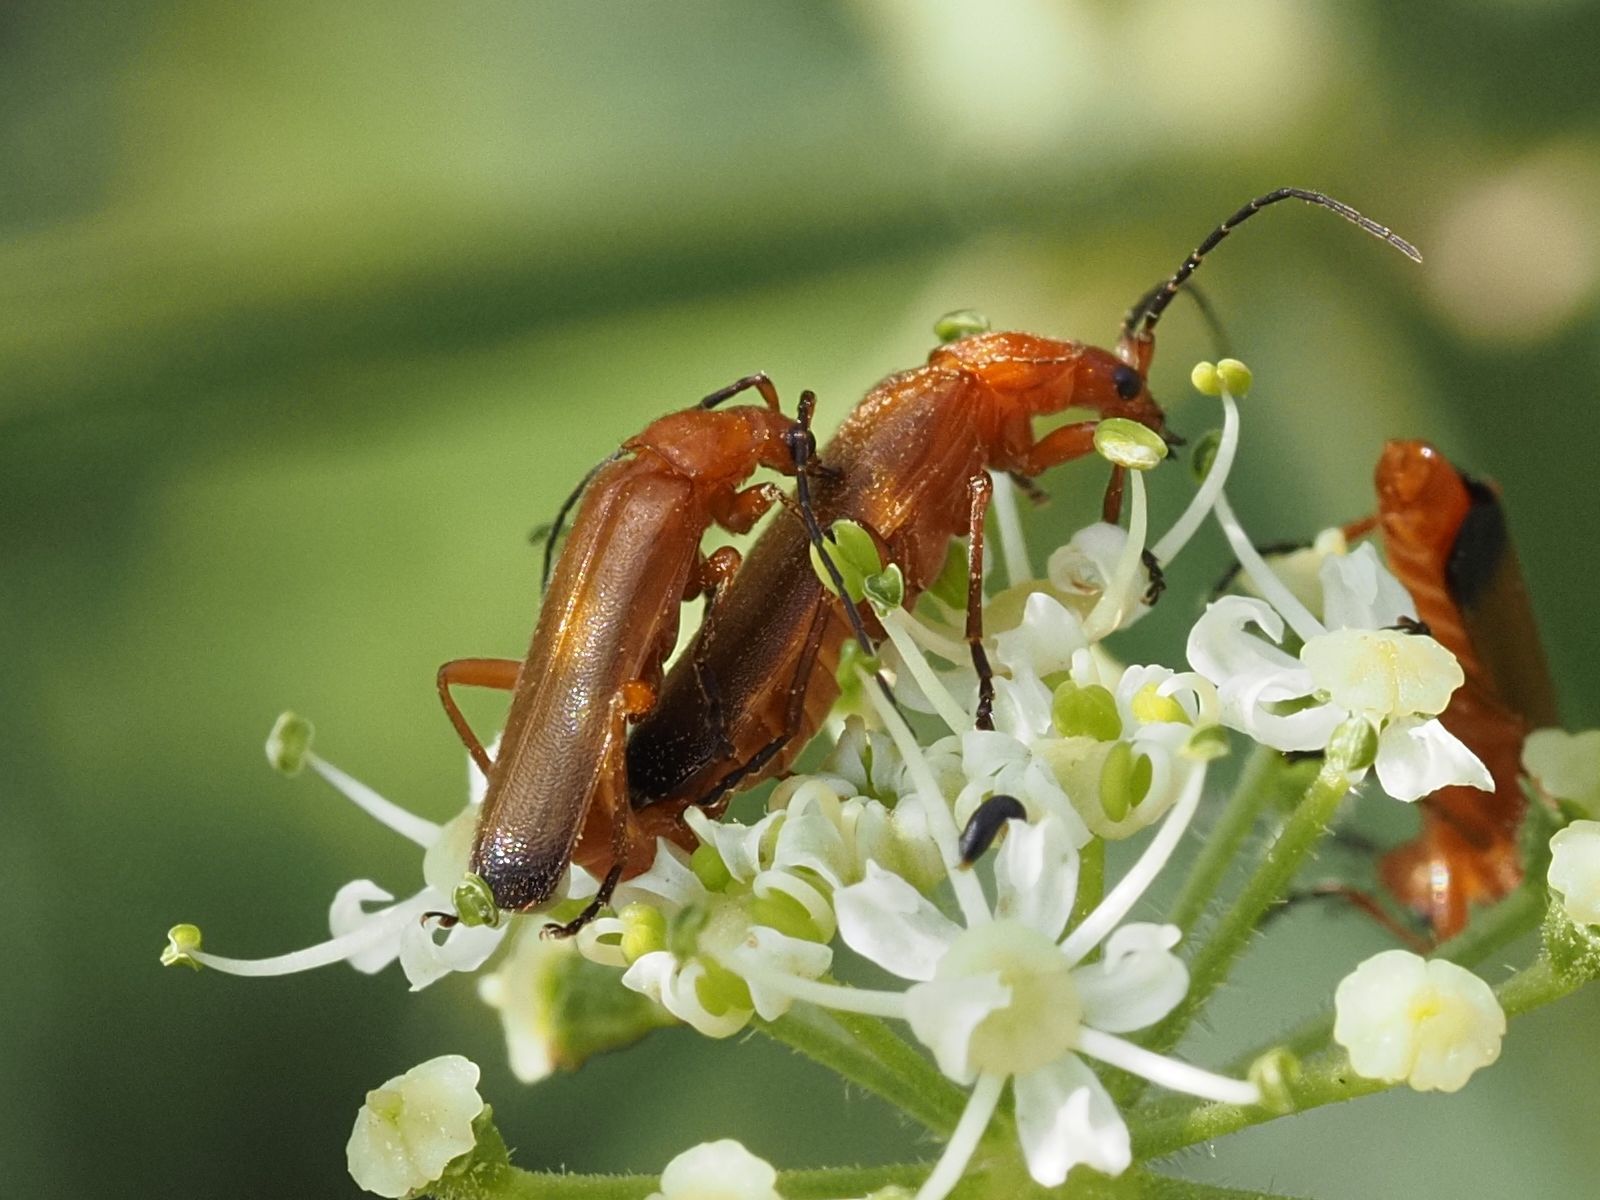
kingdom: Animalia
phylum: Arthropoda
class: Insecta
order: Coleoptera
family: Cantharidae
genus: Rhagonycha
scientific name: Rhagonycha fulva
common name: Common red soldier beetle
